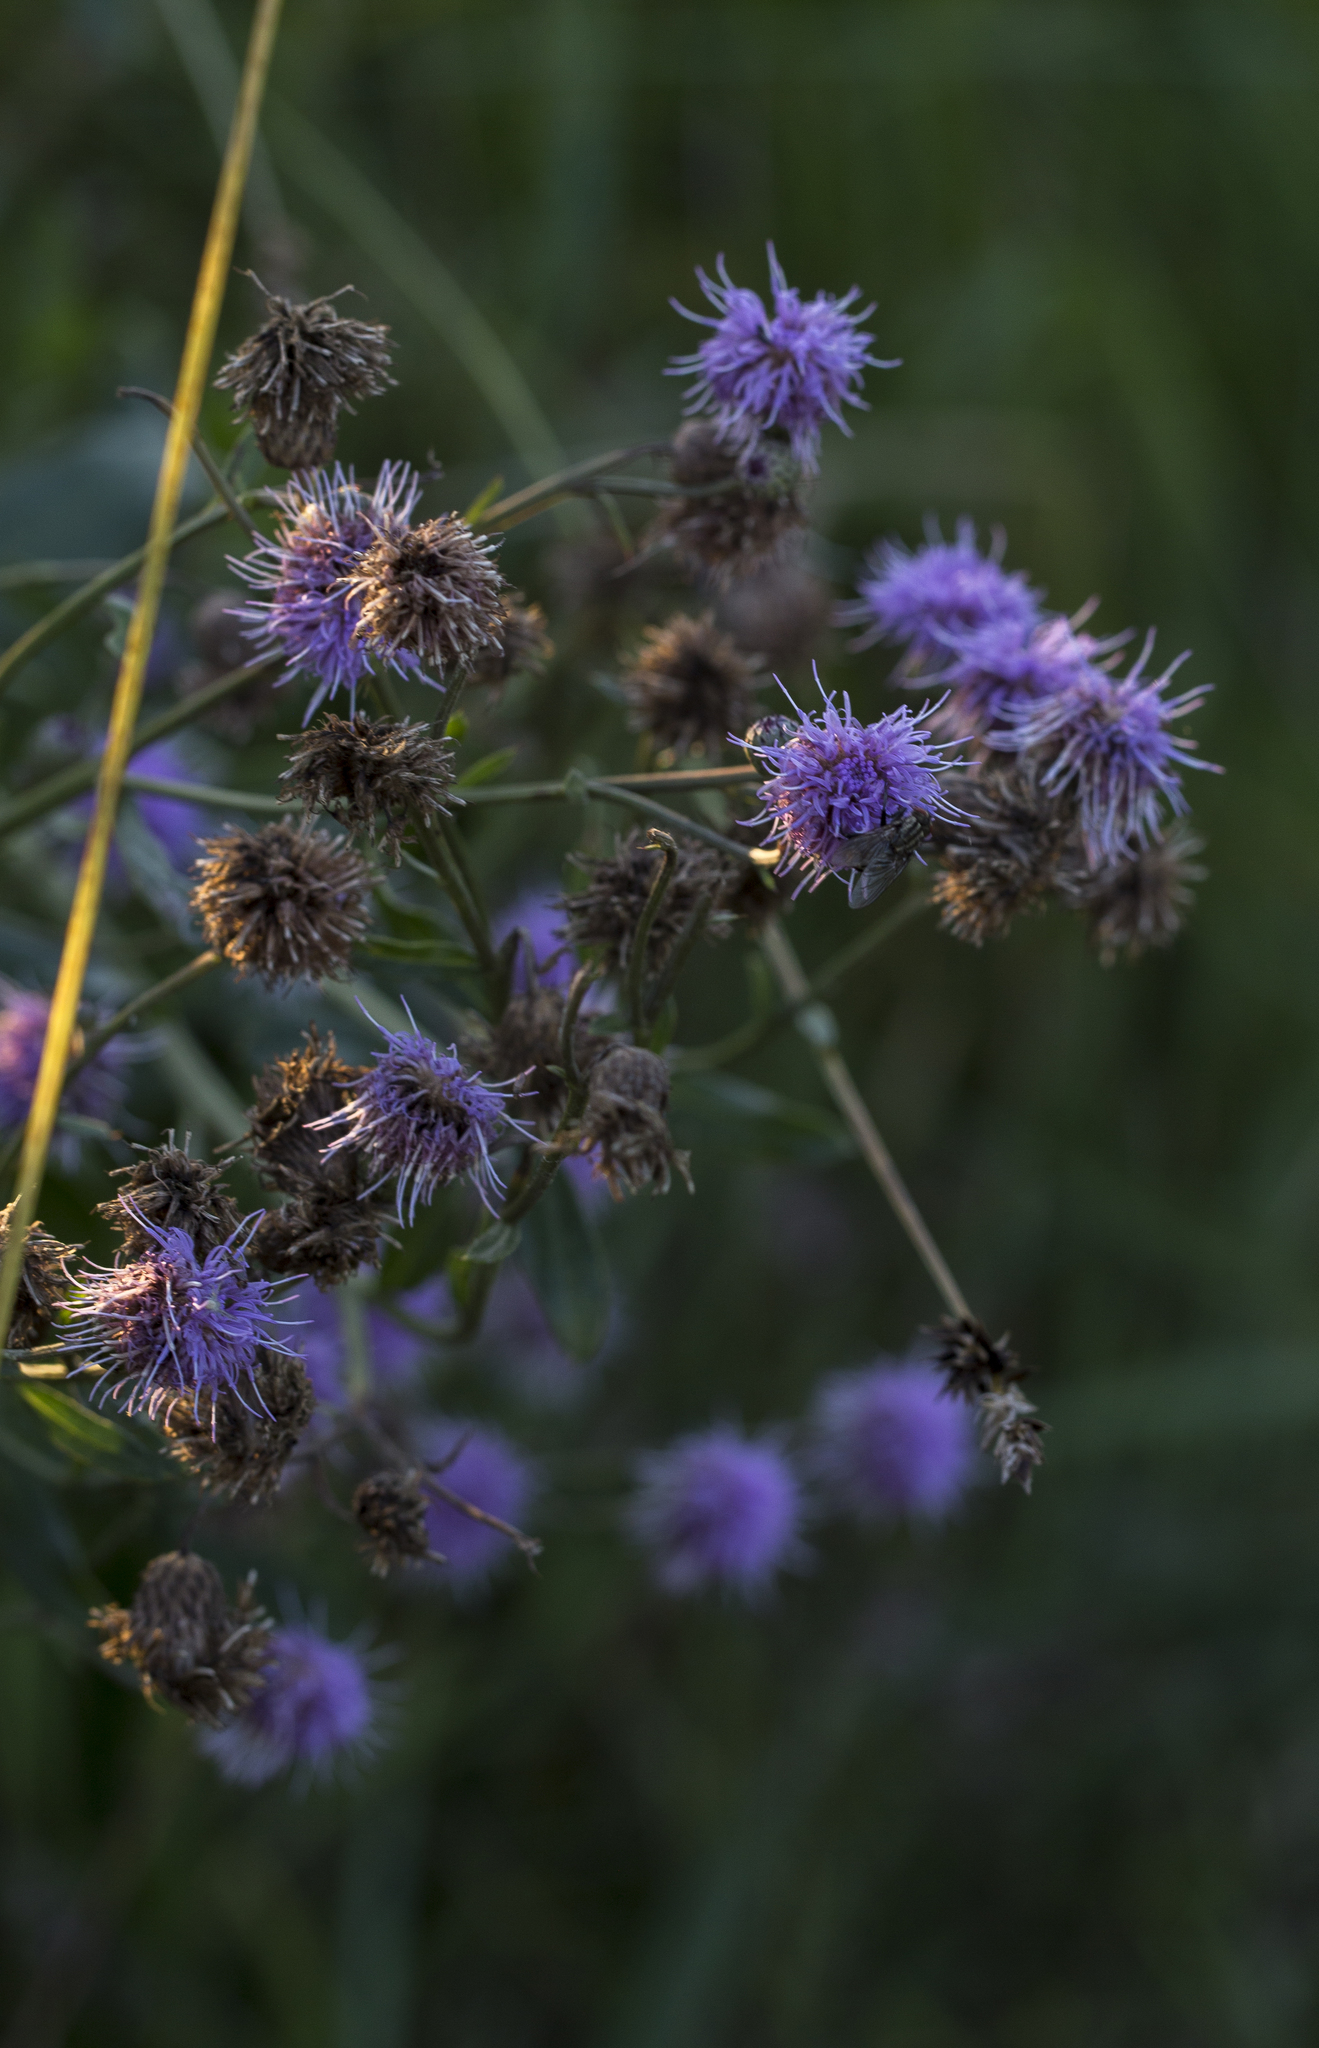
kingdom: Plantae
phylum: Tracheophyta
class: Magnoliopsida
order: Asterales
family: Asteraceae
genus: Cirsium
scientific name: Cirsium arvense
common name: Creeping thistle
